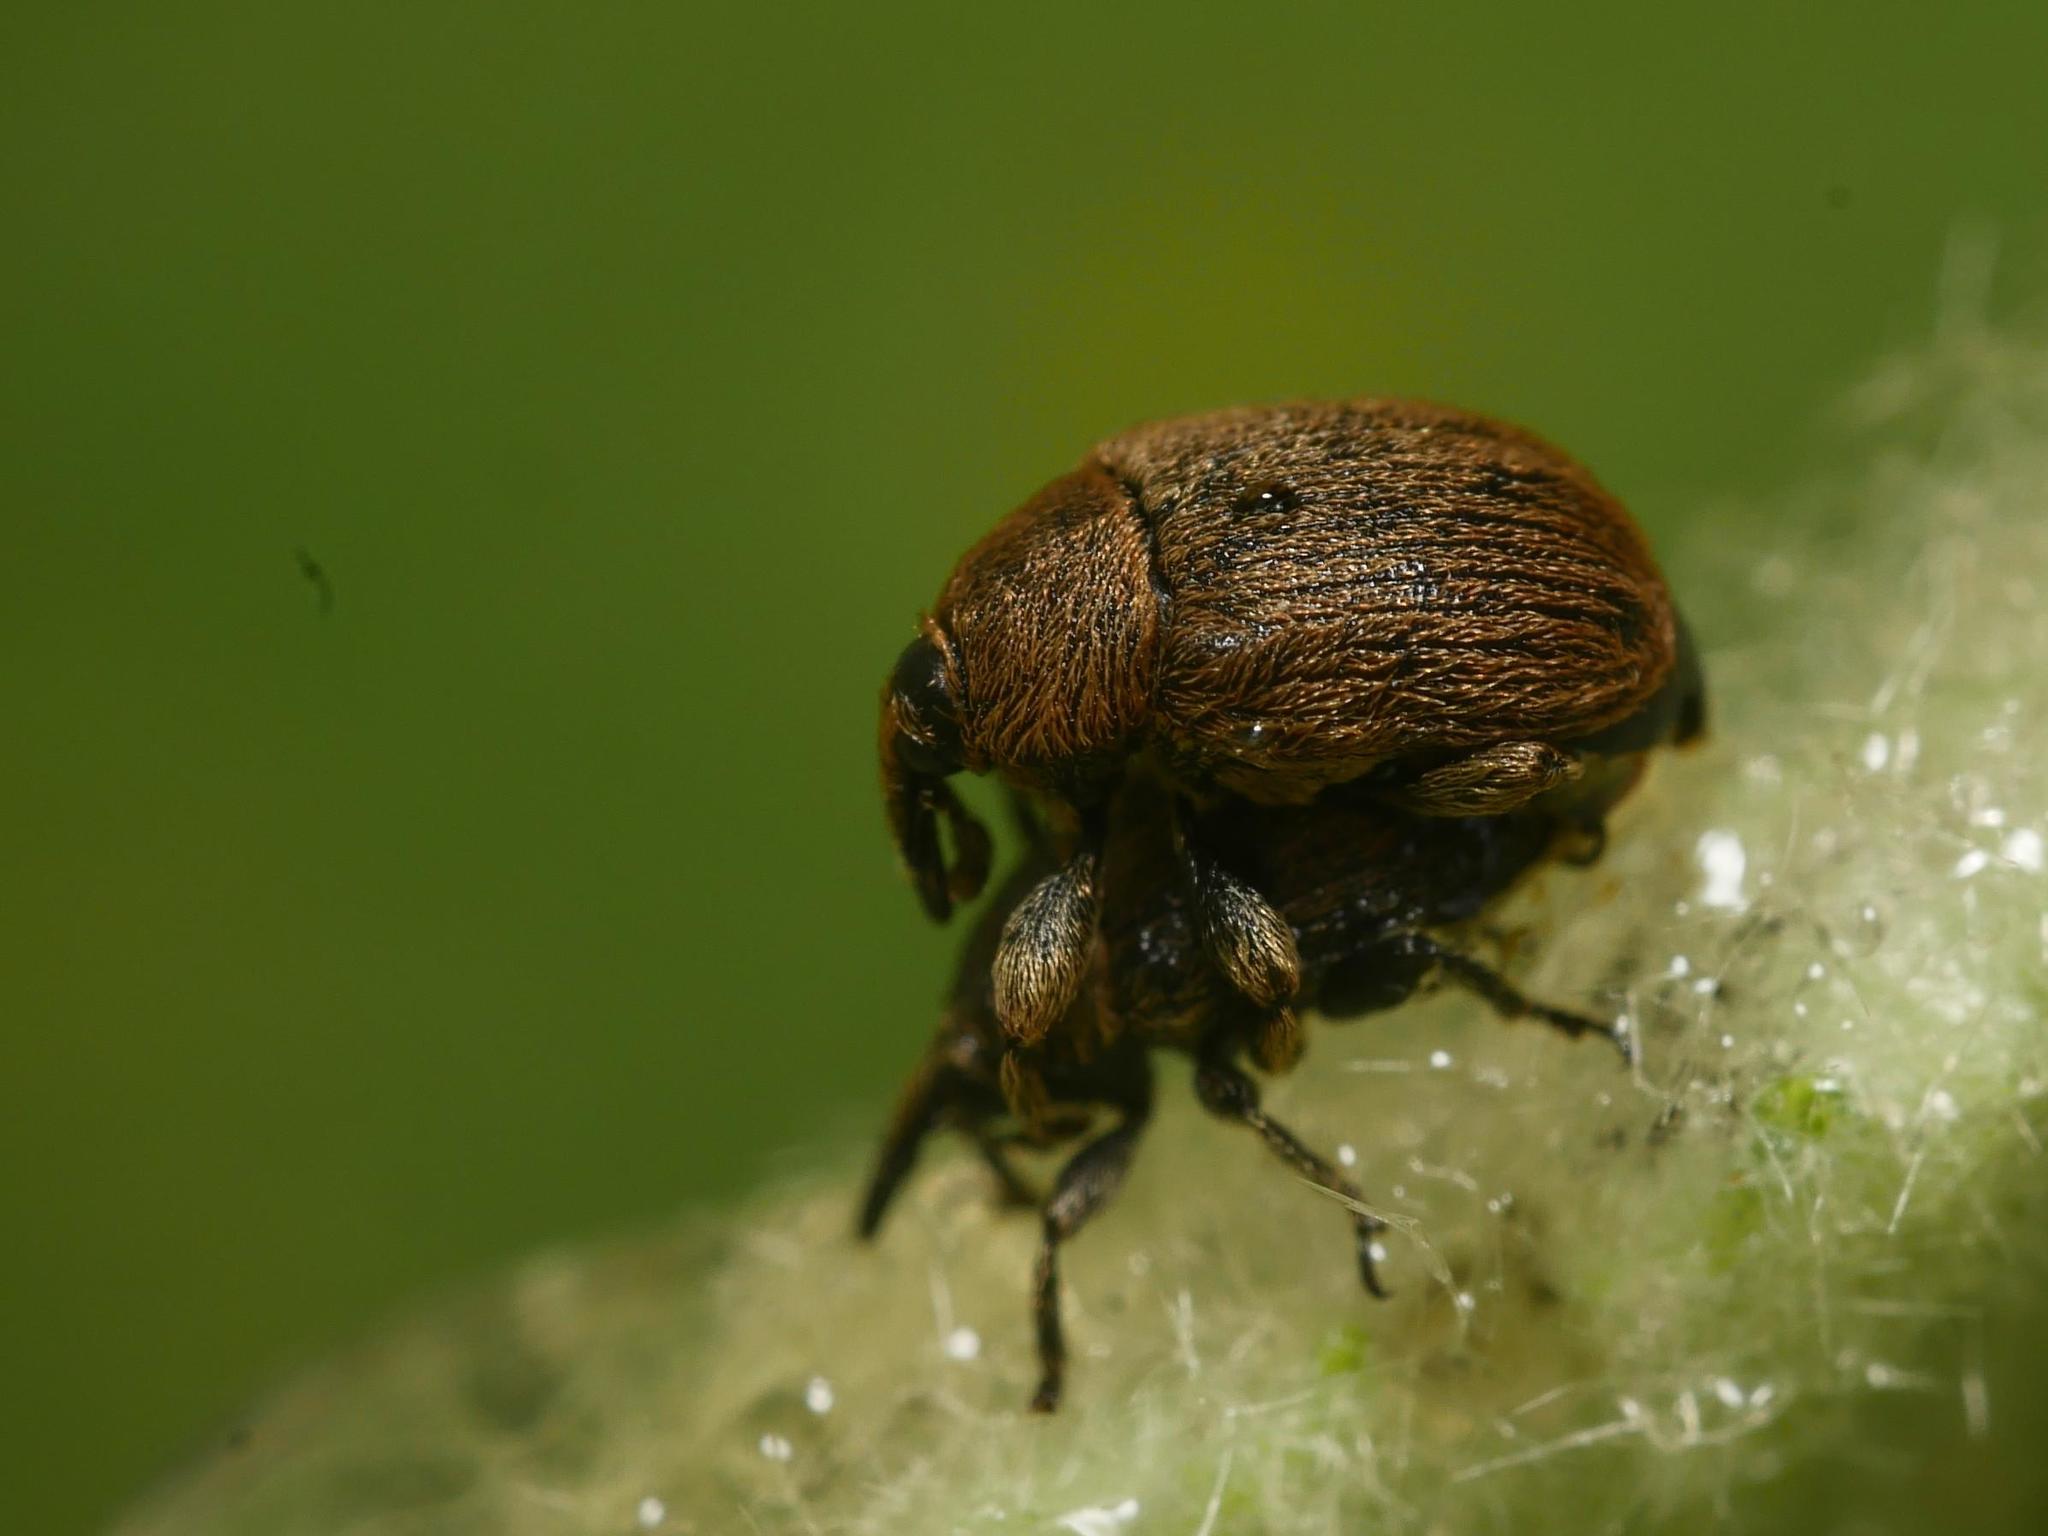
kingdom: Animalia
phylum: Arthropoda
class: Insecta
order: Coleoptera
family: Curculionidae
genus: Rhinusa
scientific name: Rhinusa tetra
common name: Weevil
